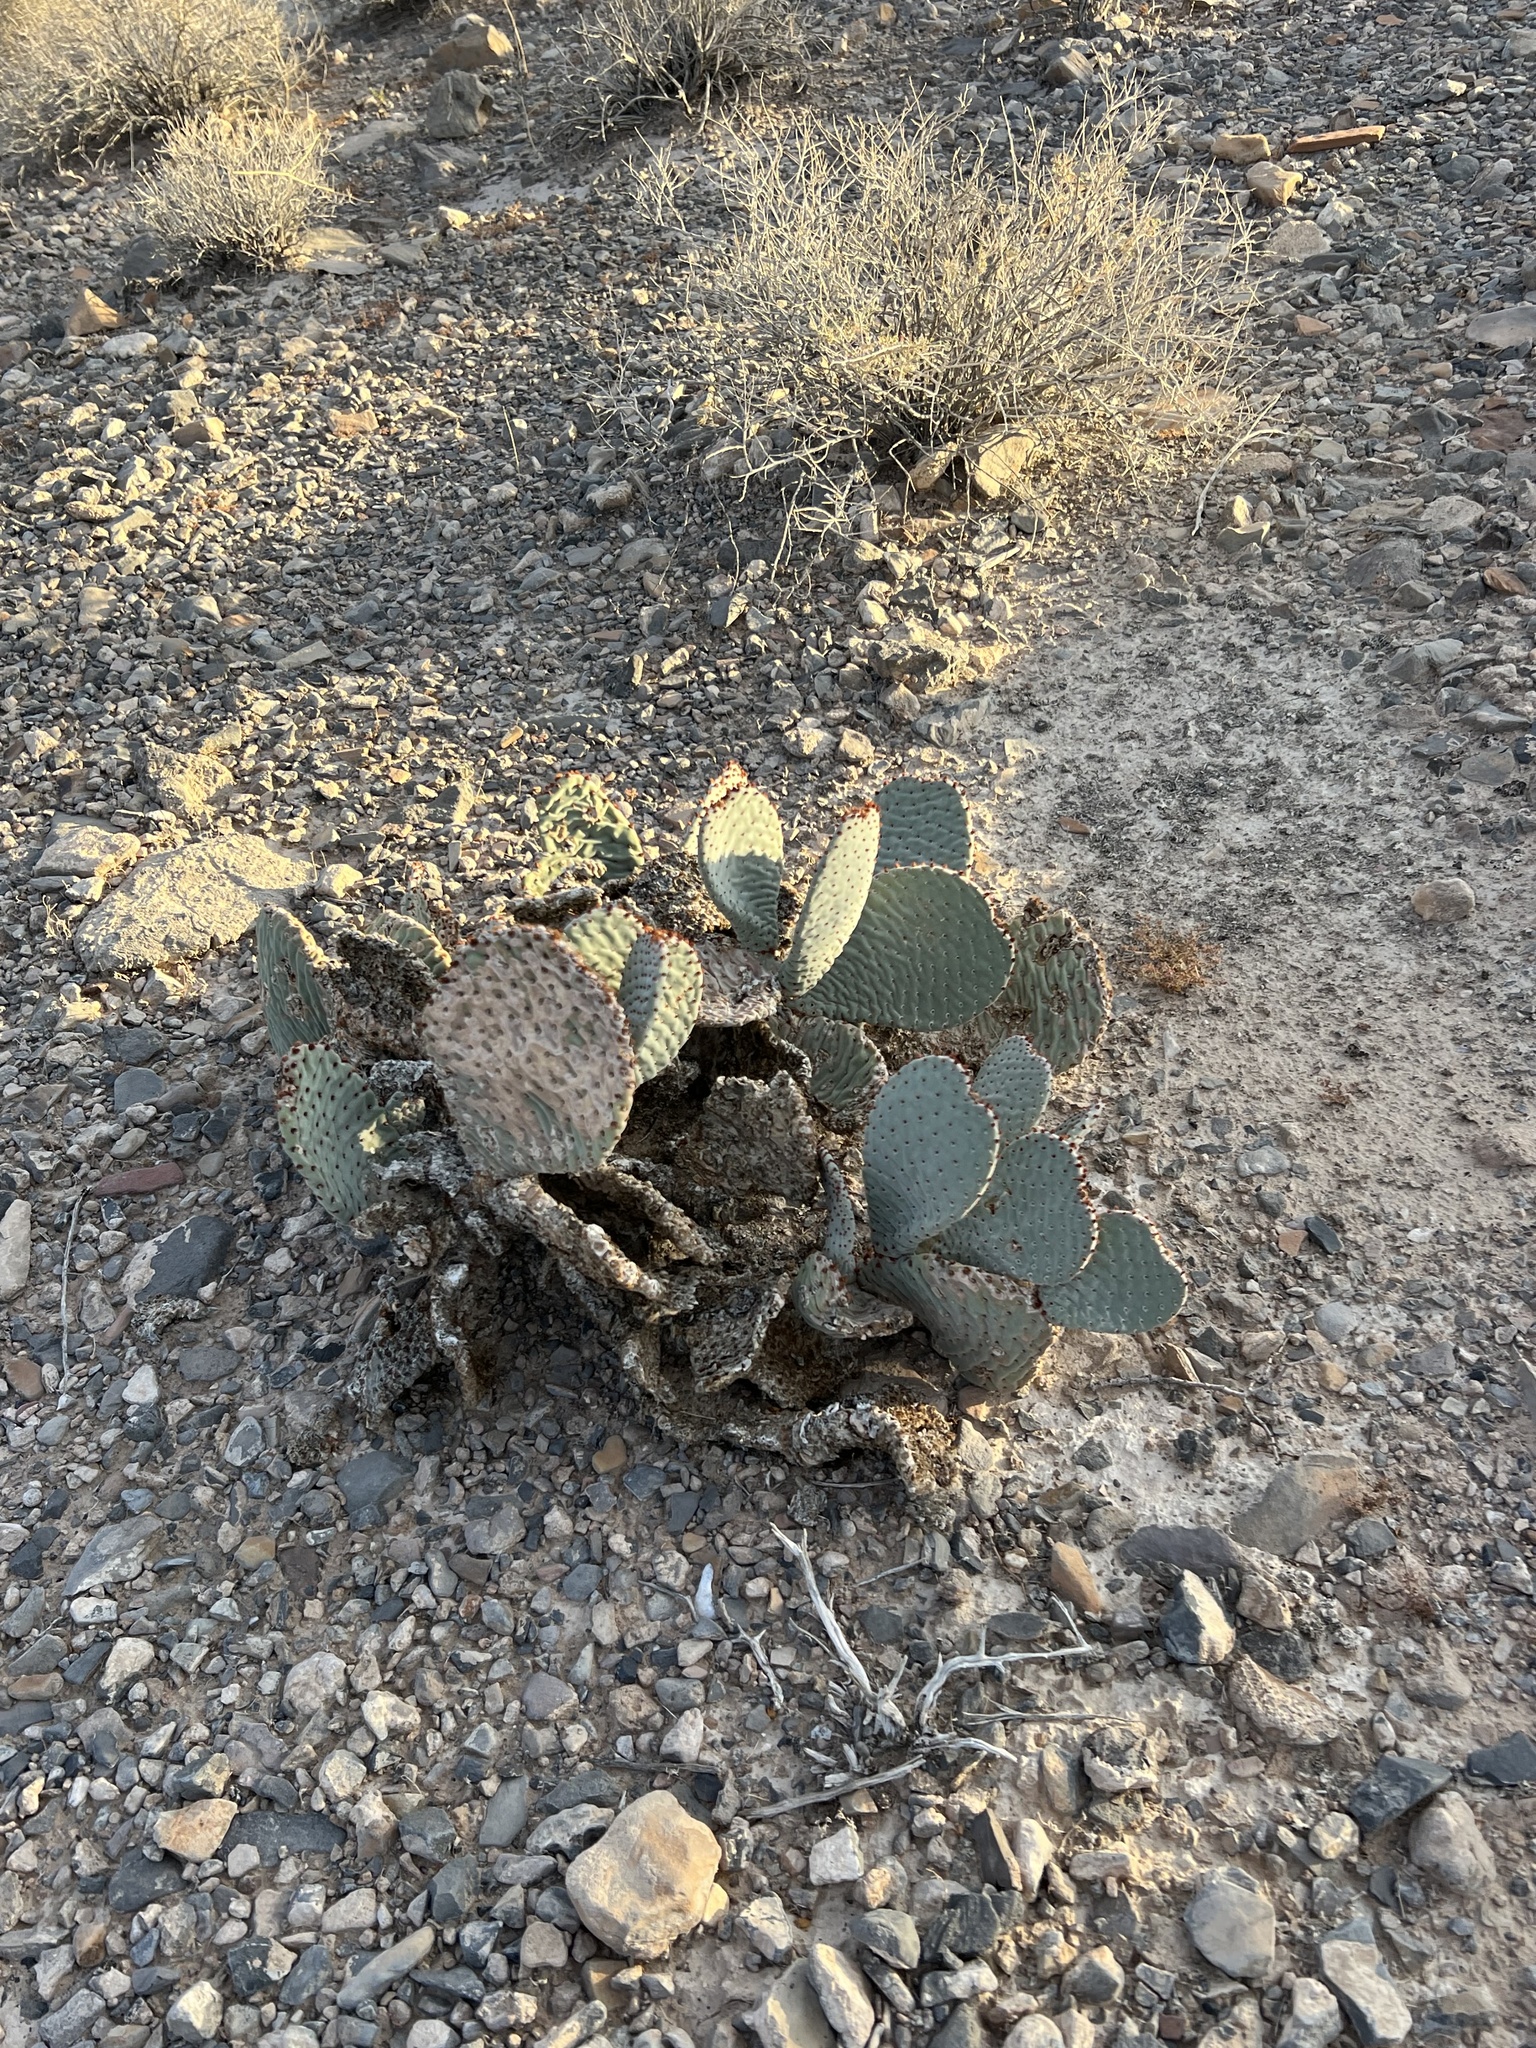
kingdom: Plantae
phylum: Tracheophyta
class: Magnoliopsida
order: Caryophyllales
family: Cactaceae
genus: Opuntia
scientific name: Opuntia basilaris
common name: Beavertail prickly-pear
